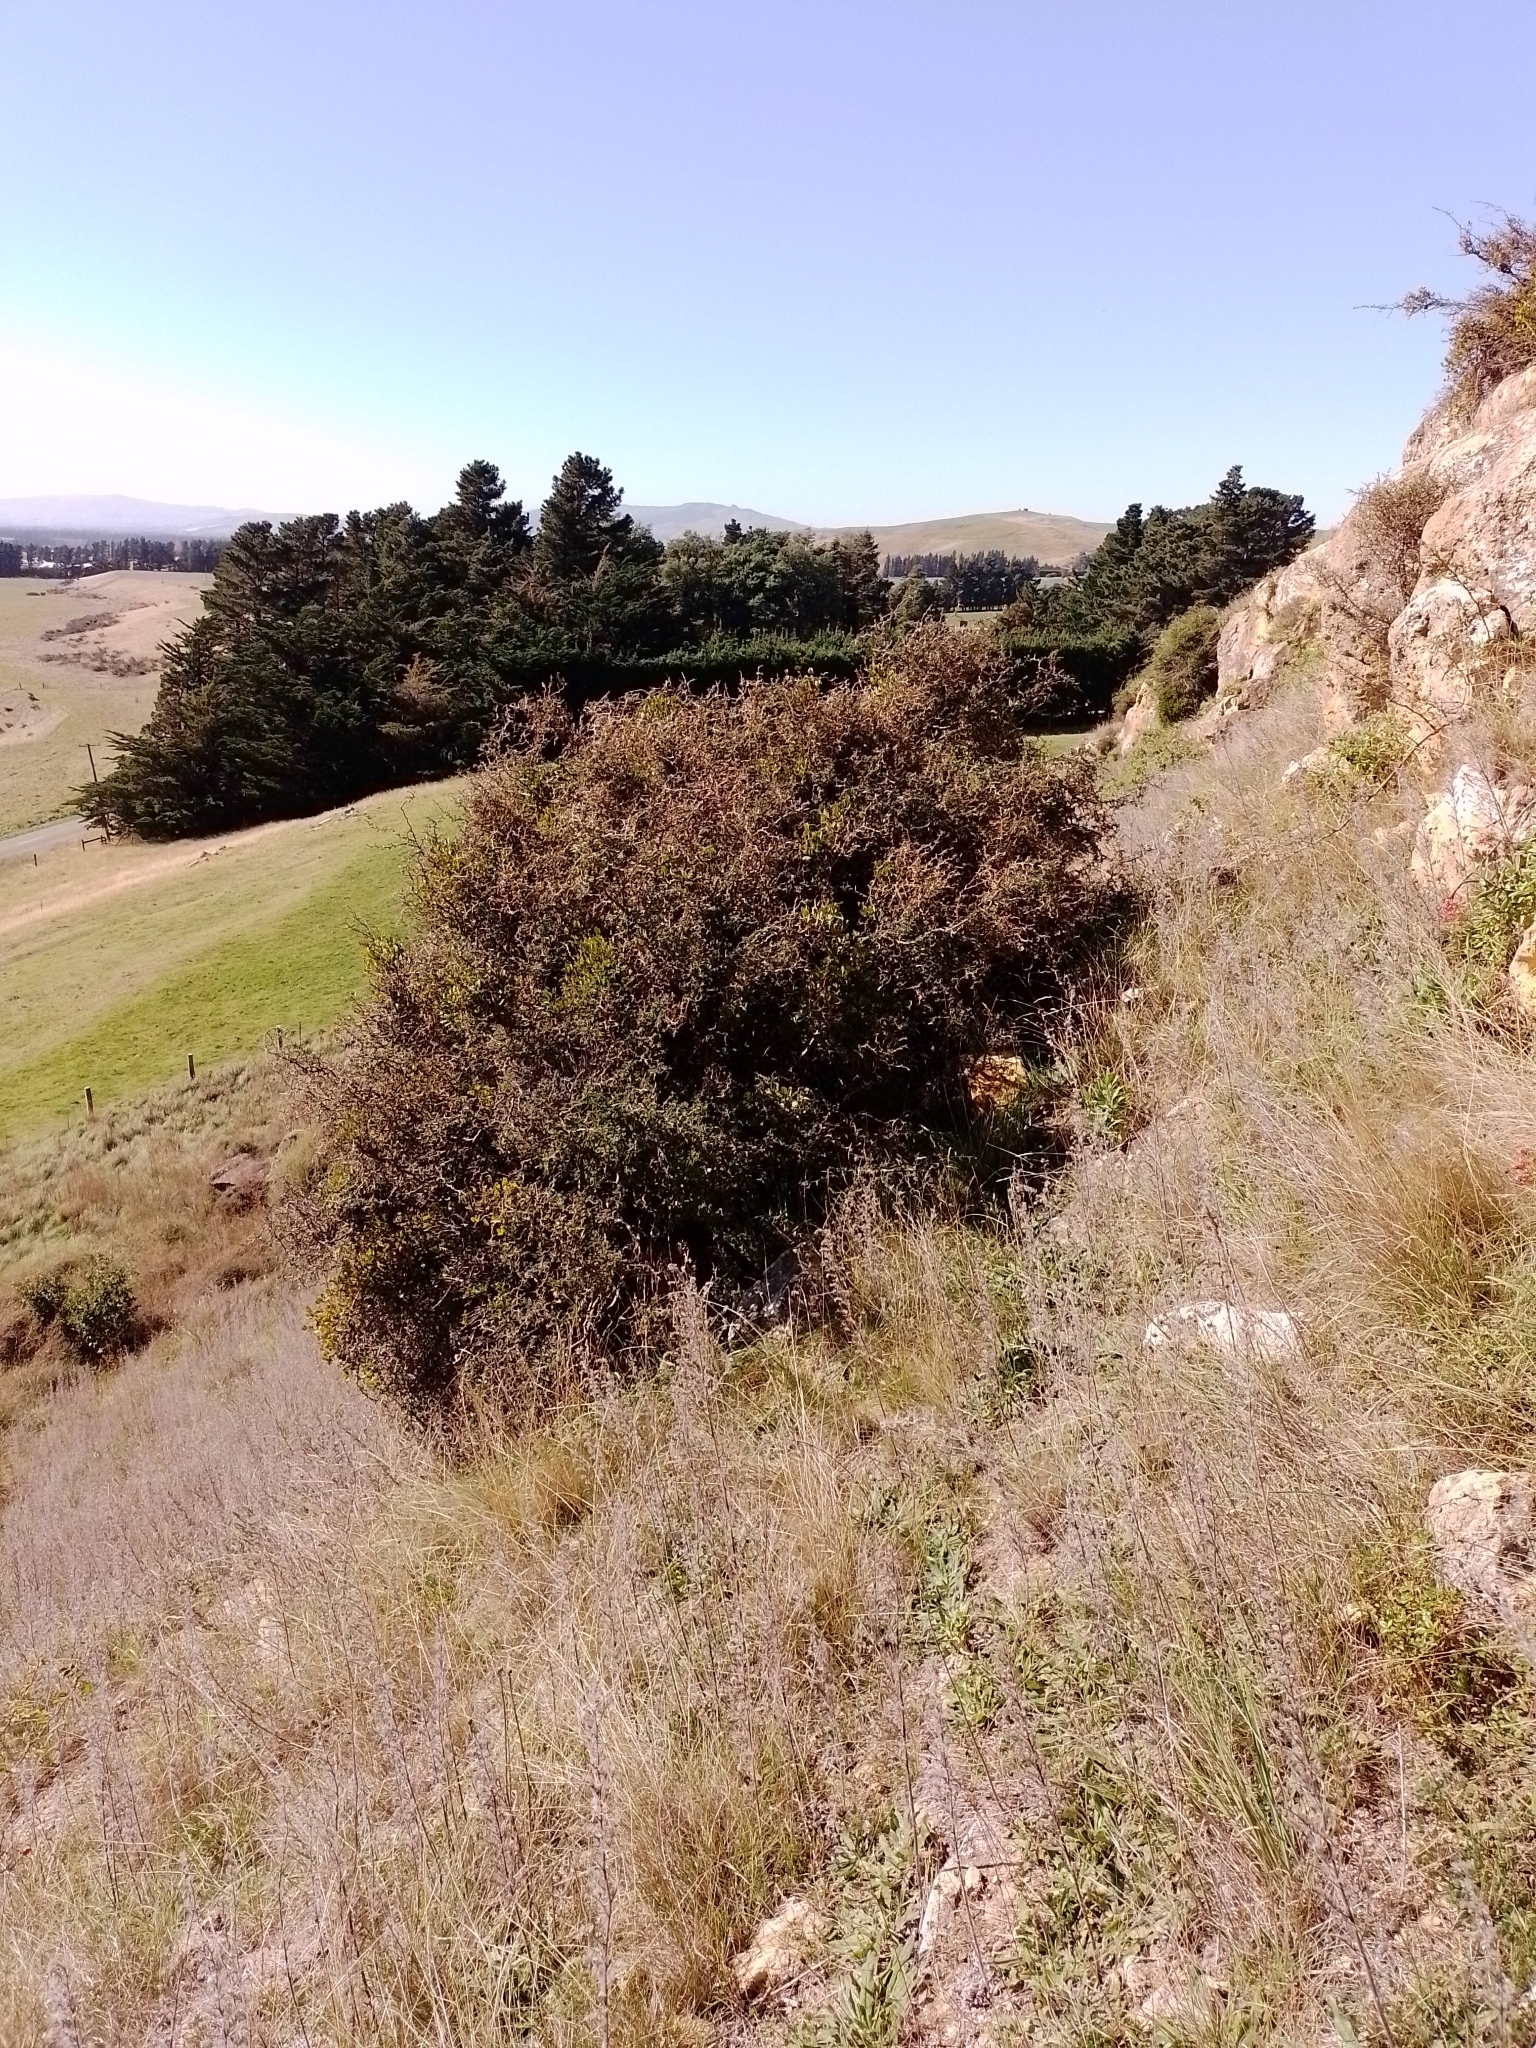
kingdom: Plantae
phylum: Tracheophyta
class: Magnoliopsida
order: Santalales
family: Loranthaceae
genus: Ileostylus
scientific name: Ileostylus micranthus
